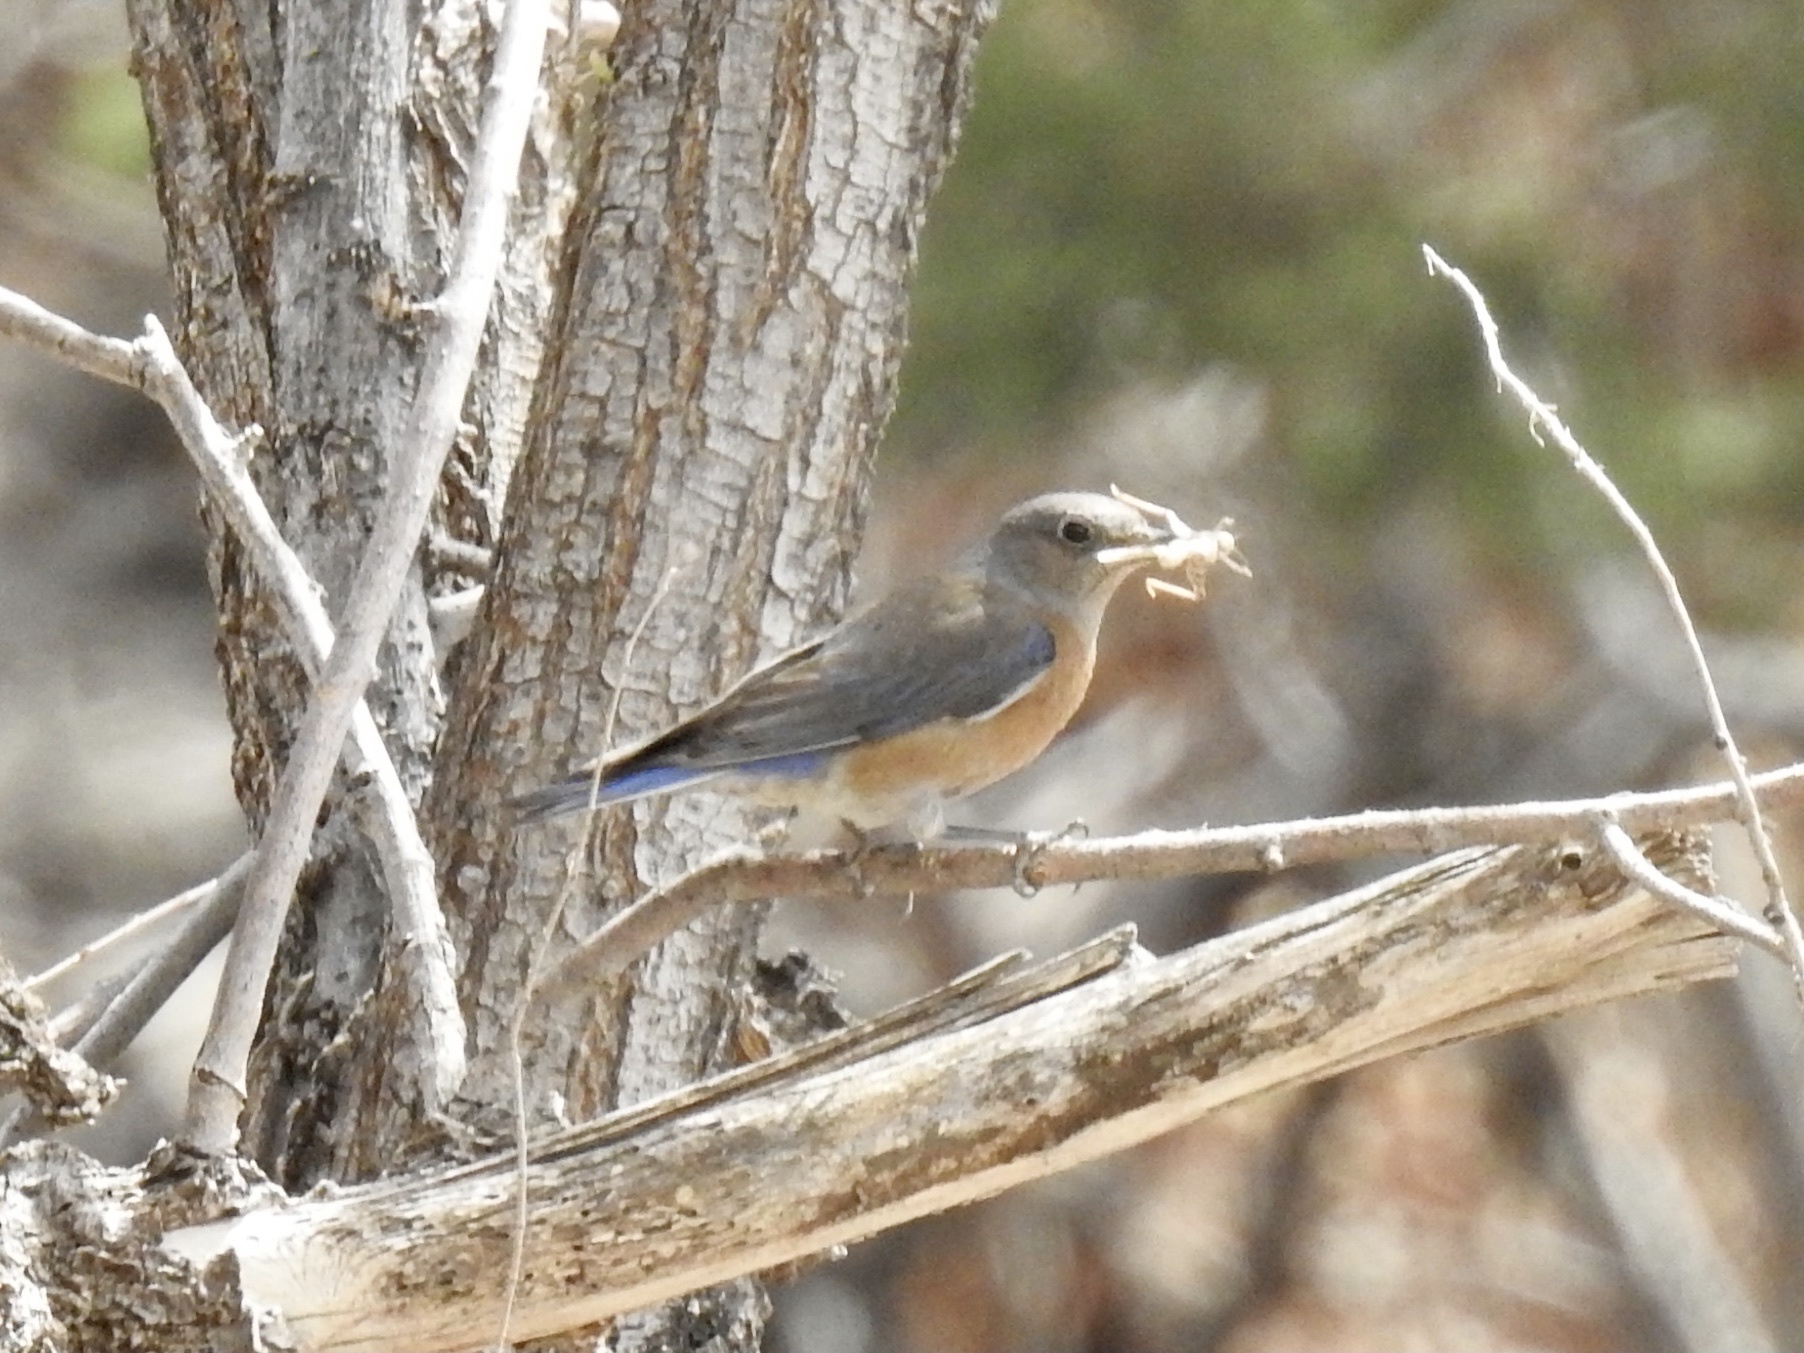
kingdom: Animalia
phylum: Chordata
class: Aves
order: Passeriformes
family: Turdidae
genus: Sialia
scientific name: Sialia mexicana
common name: Western bluebird
